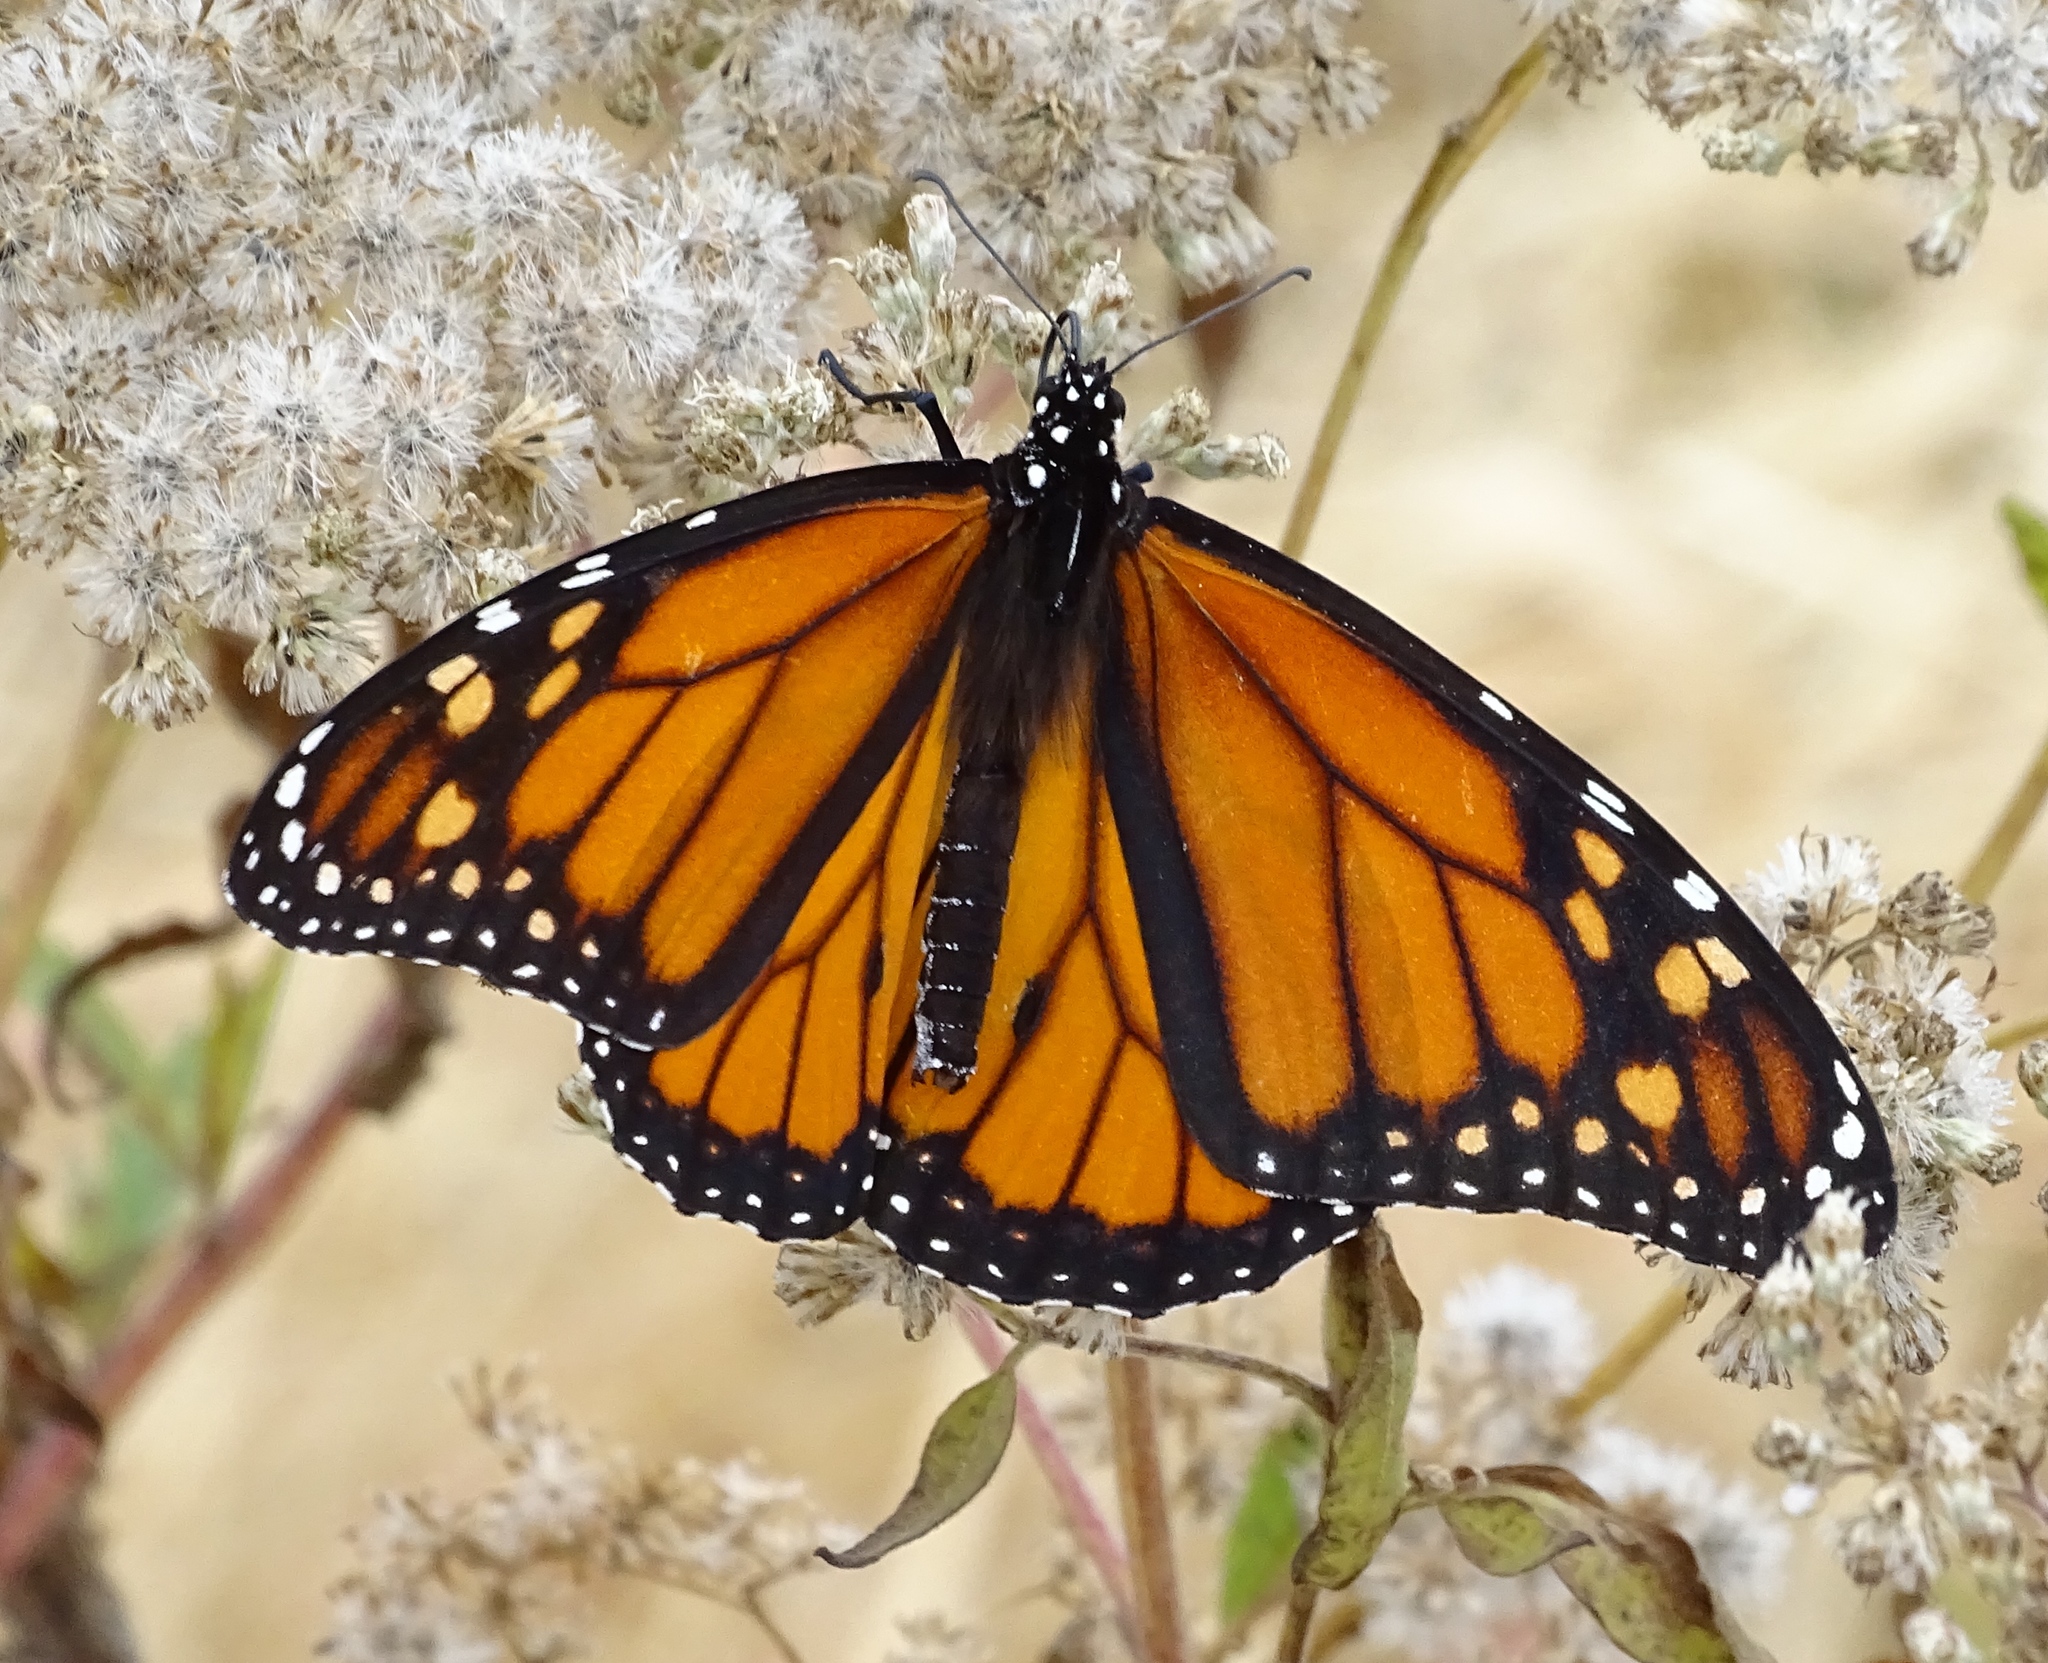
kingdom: Animalia
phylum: Arthropoda
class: Insecta
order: Lepidoptera
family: Nymphalidae
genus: Danaus
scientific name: Danaus plexippus
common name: Monarch
